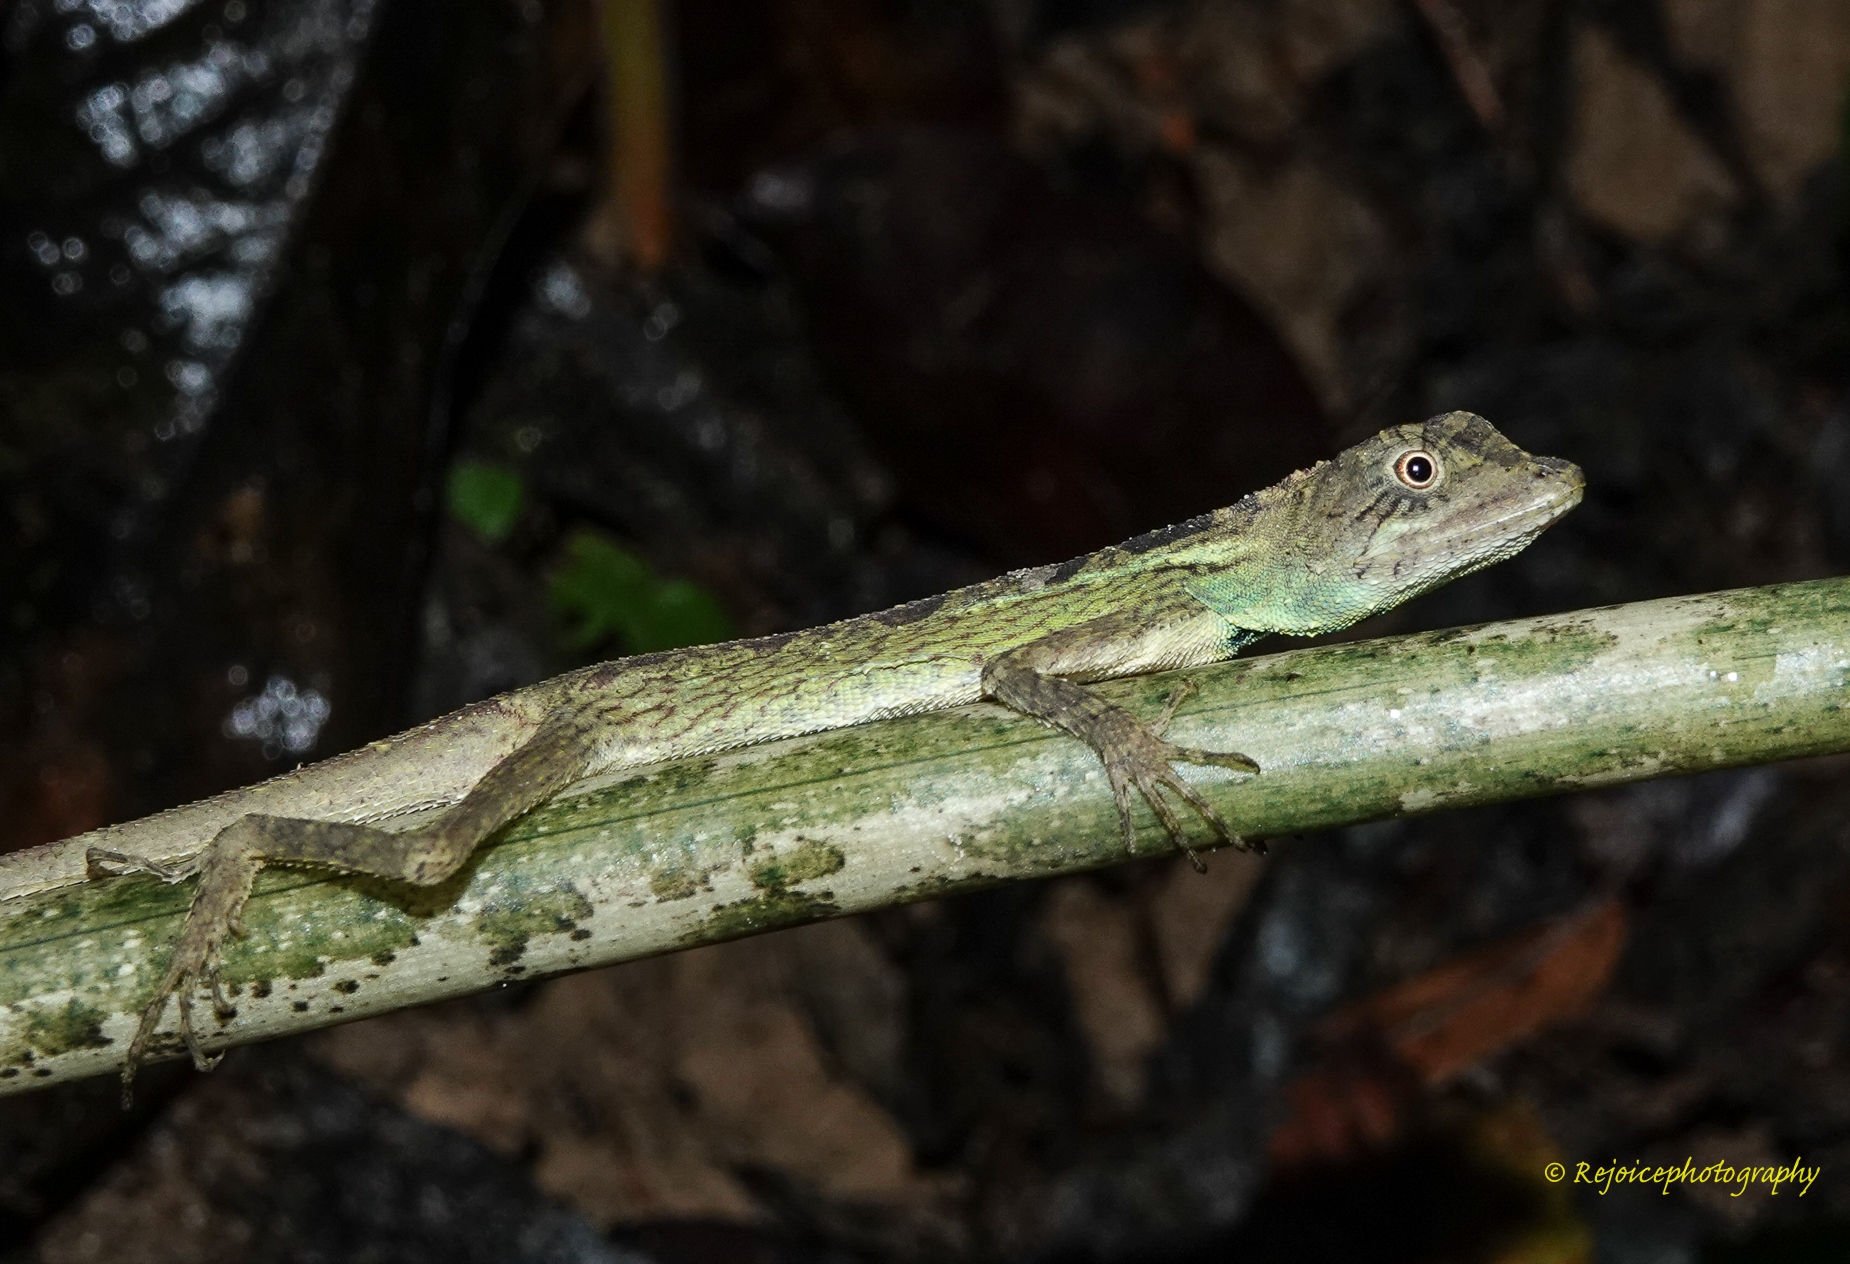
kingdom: Animalia
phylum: Chordata
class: Squamata
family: Agamidae
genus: Ptyctolaemus
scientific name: Ptyctolaemus gularis
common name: Green fan-throated lizard
